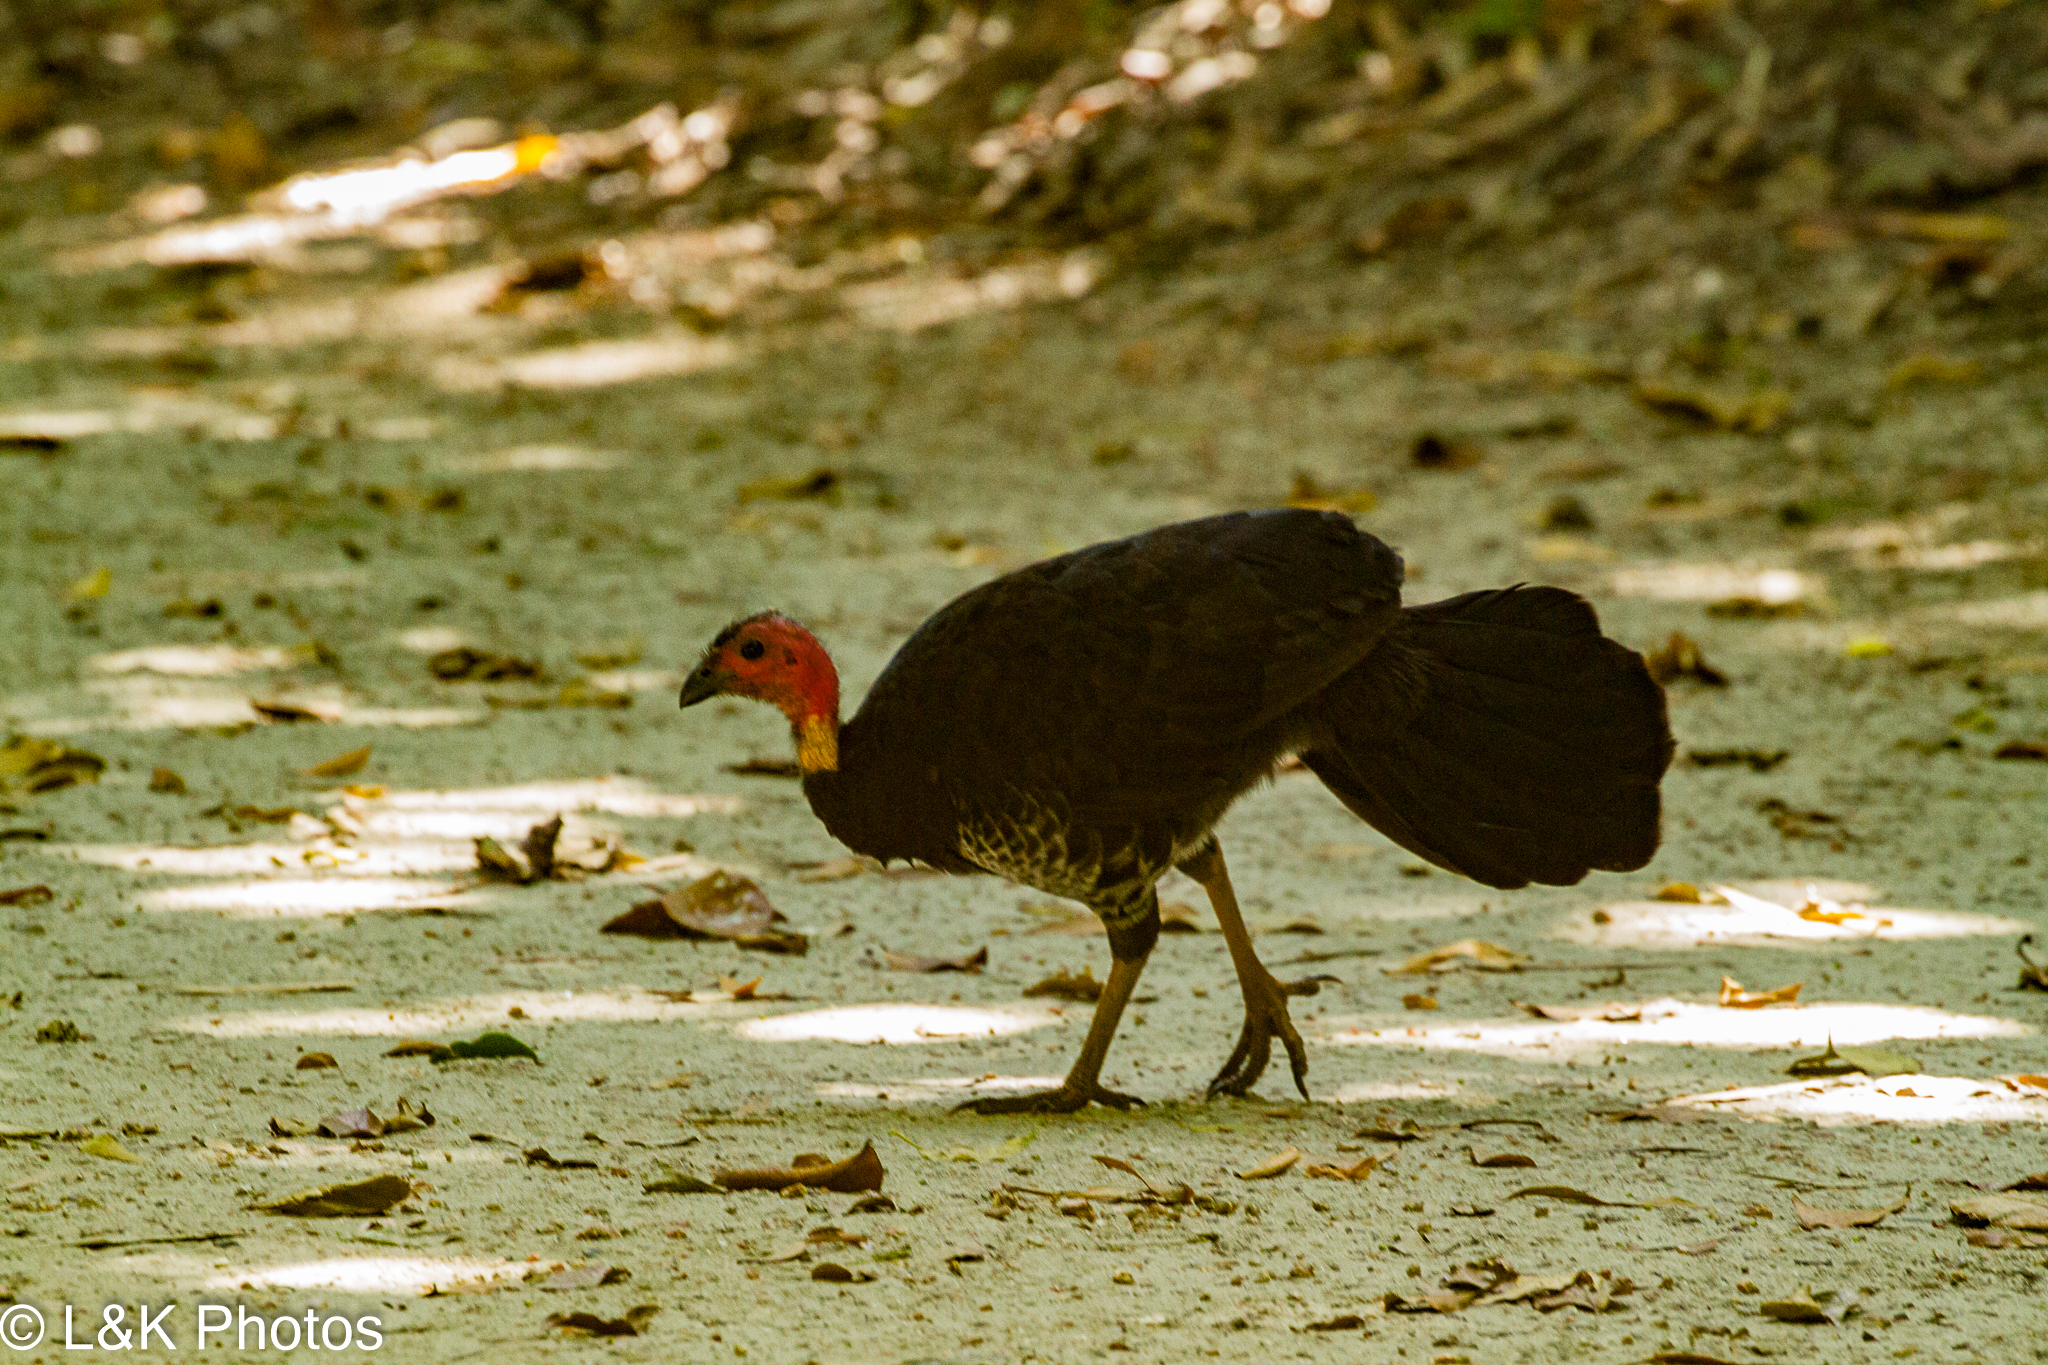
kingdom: Animalia
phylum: Chordata
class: Aves
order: Galliformes
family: Megapodiidae
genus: Alectura
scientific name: Alectura lathami
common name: Australian brushturkey
